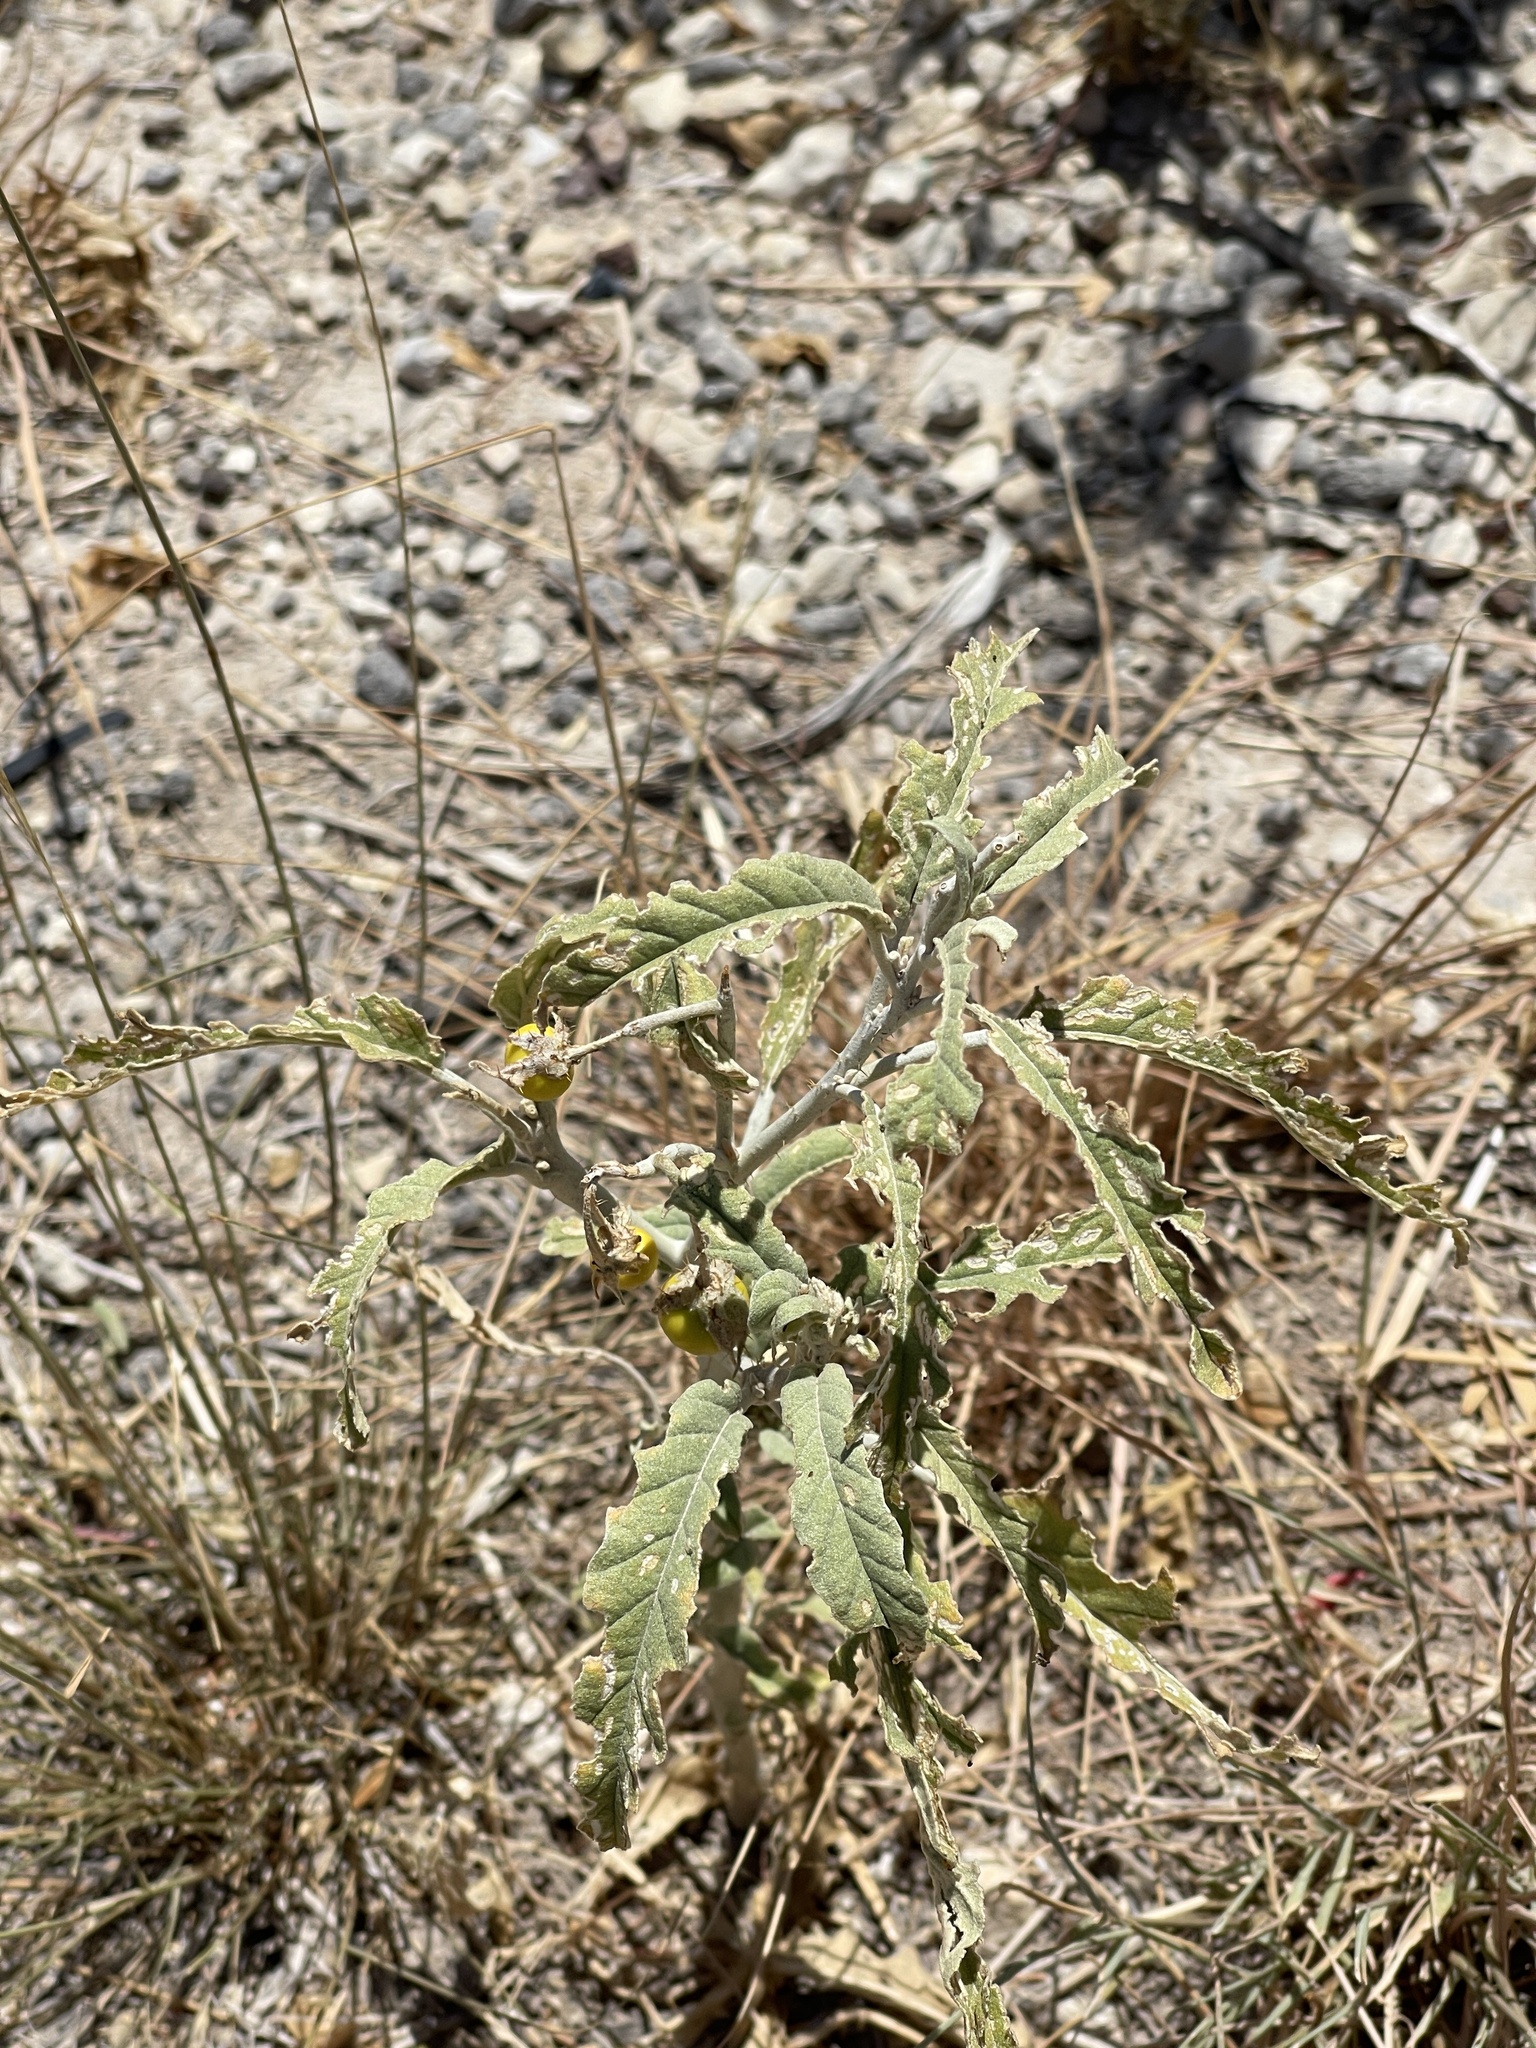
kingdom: Plantae
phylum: Tracheophyta
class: Magnoliopsida
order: Solanales
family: Solanaceae
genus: Solanum
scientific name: Solanum elaeagnifolium
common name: Silverleaf nightshade
